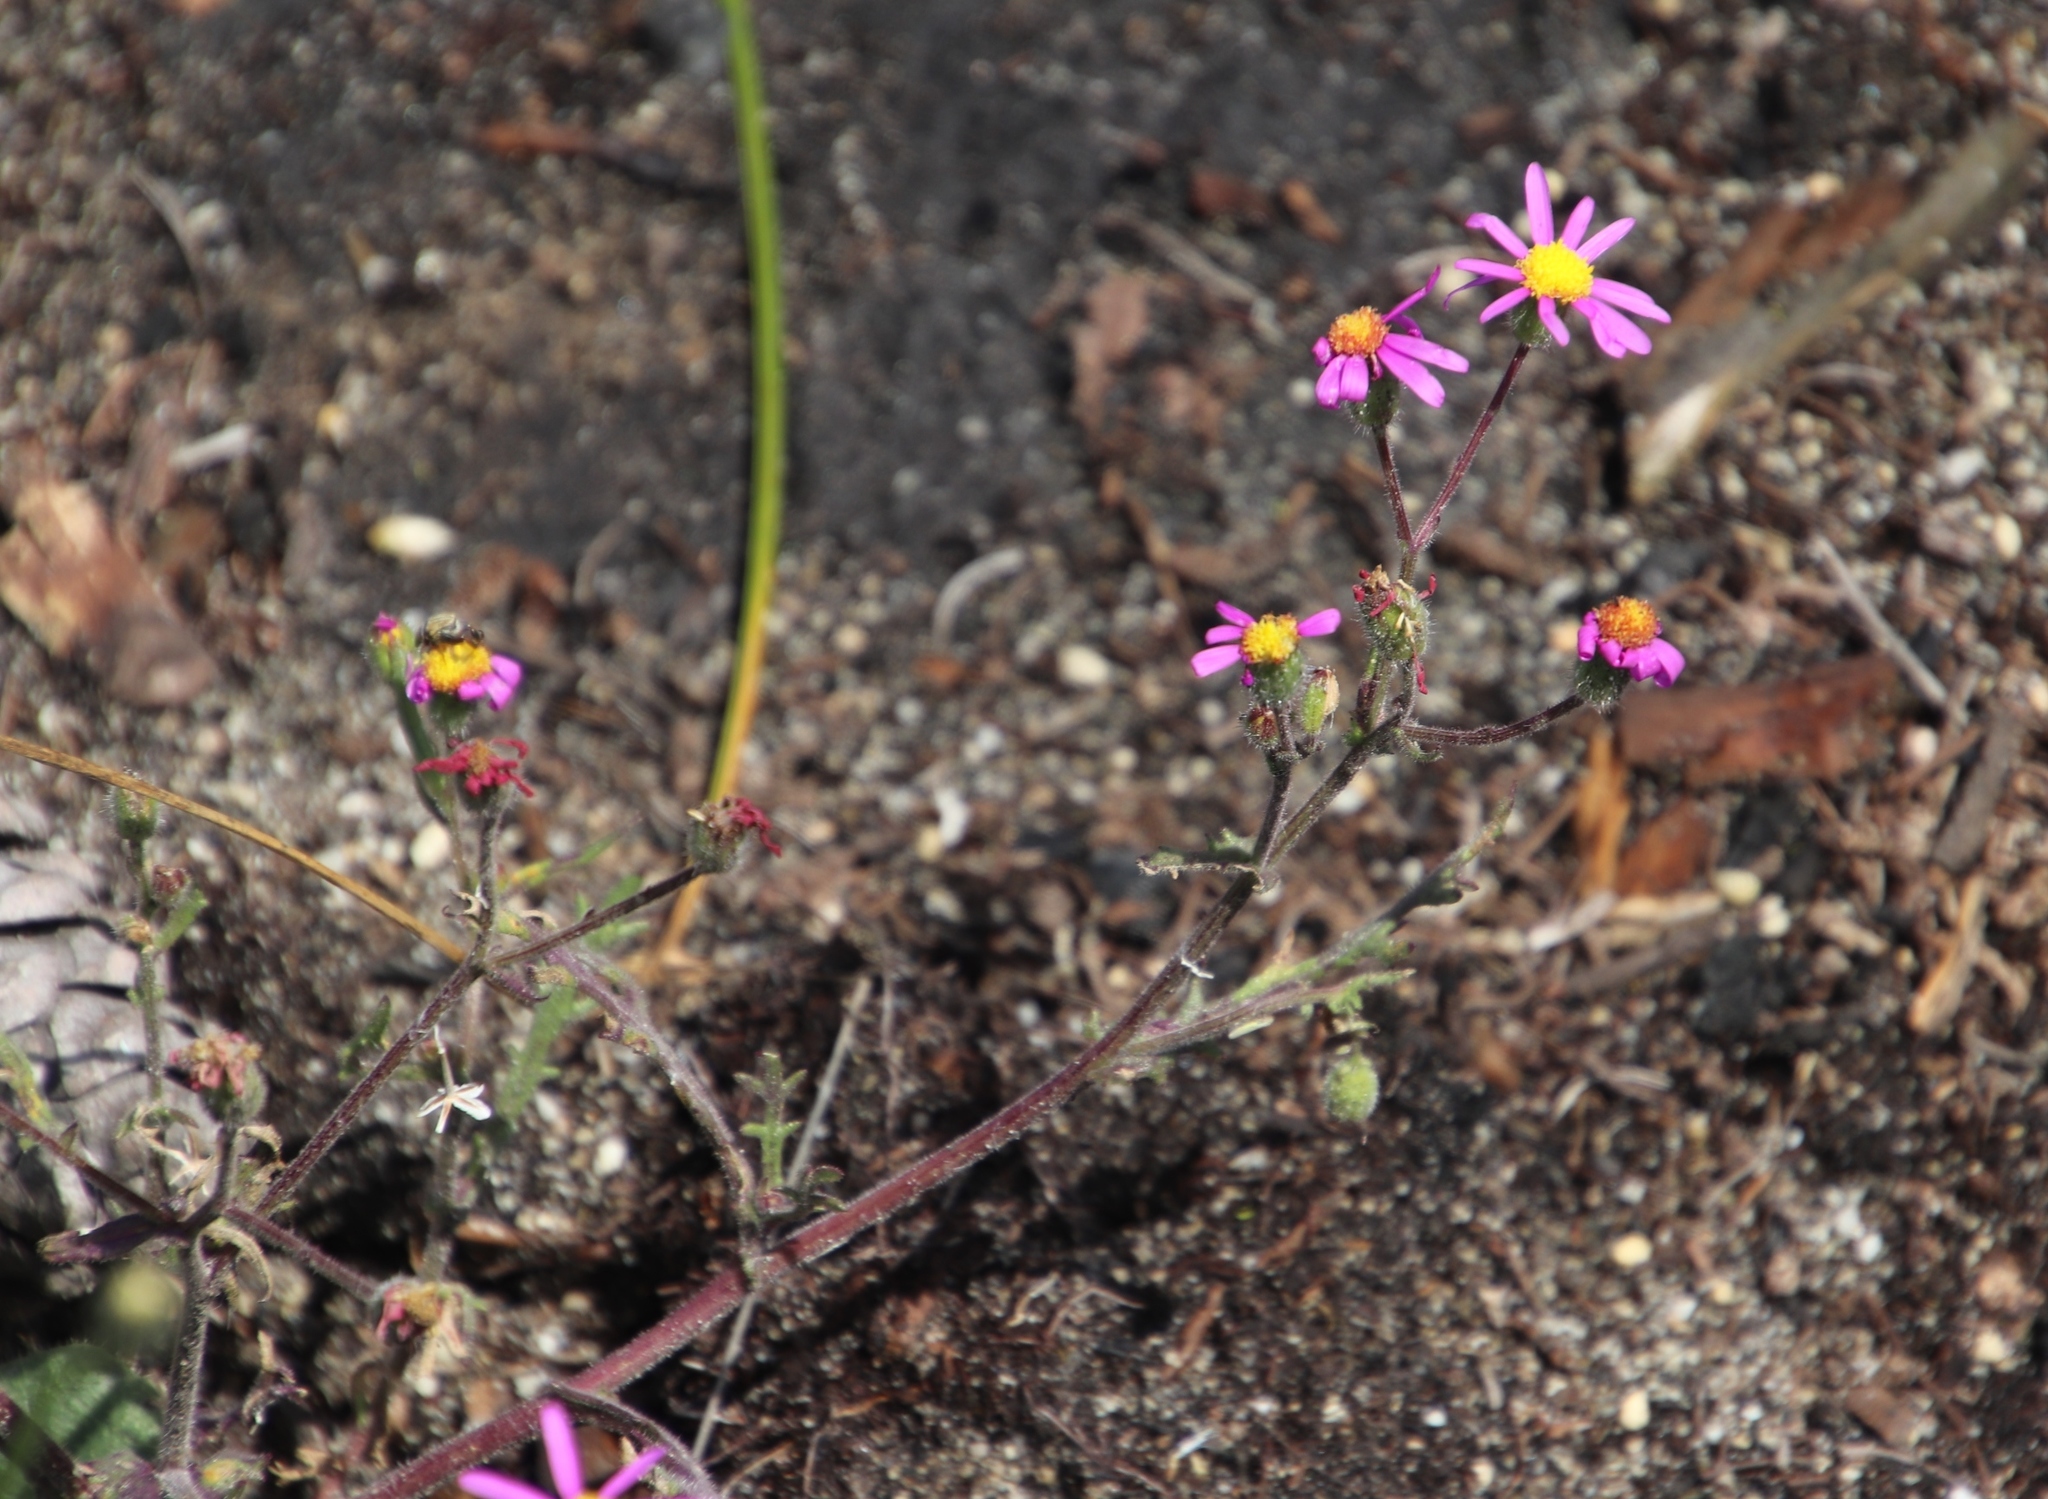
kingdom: Plantae
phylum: Tracheophyta
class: Magnoliopsida
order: Asterales
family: Asteraceae
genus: Senecio
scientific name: Senecio arenarius
